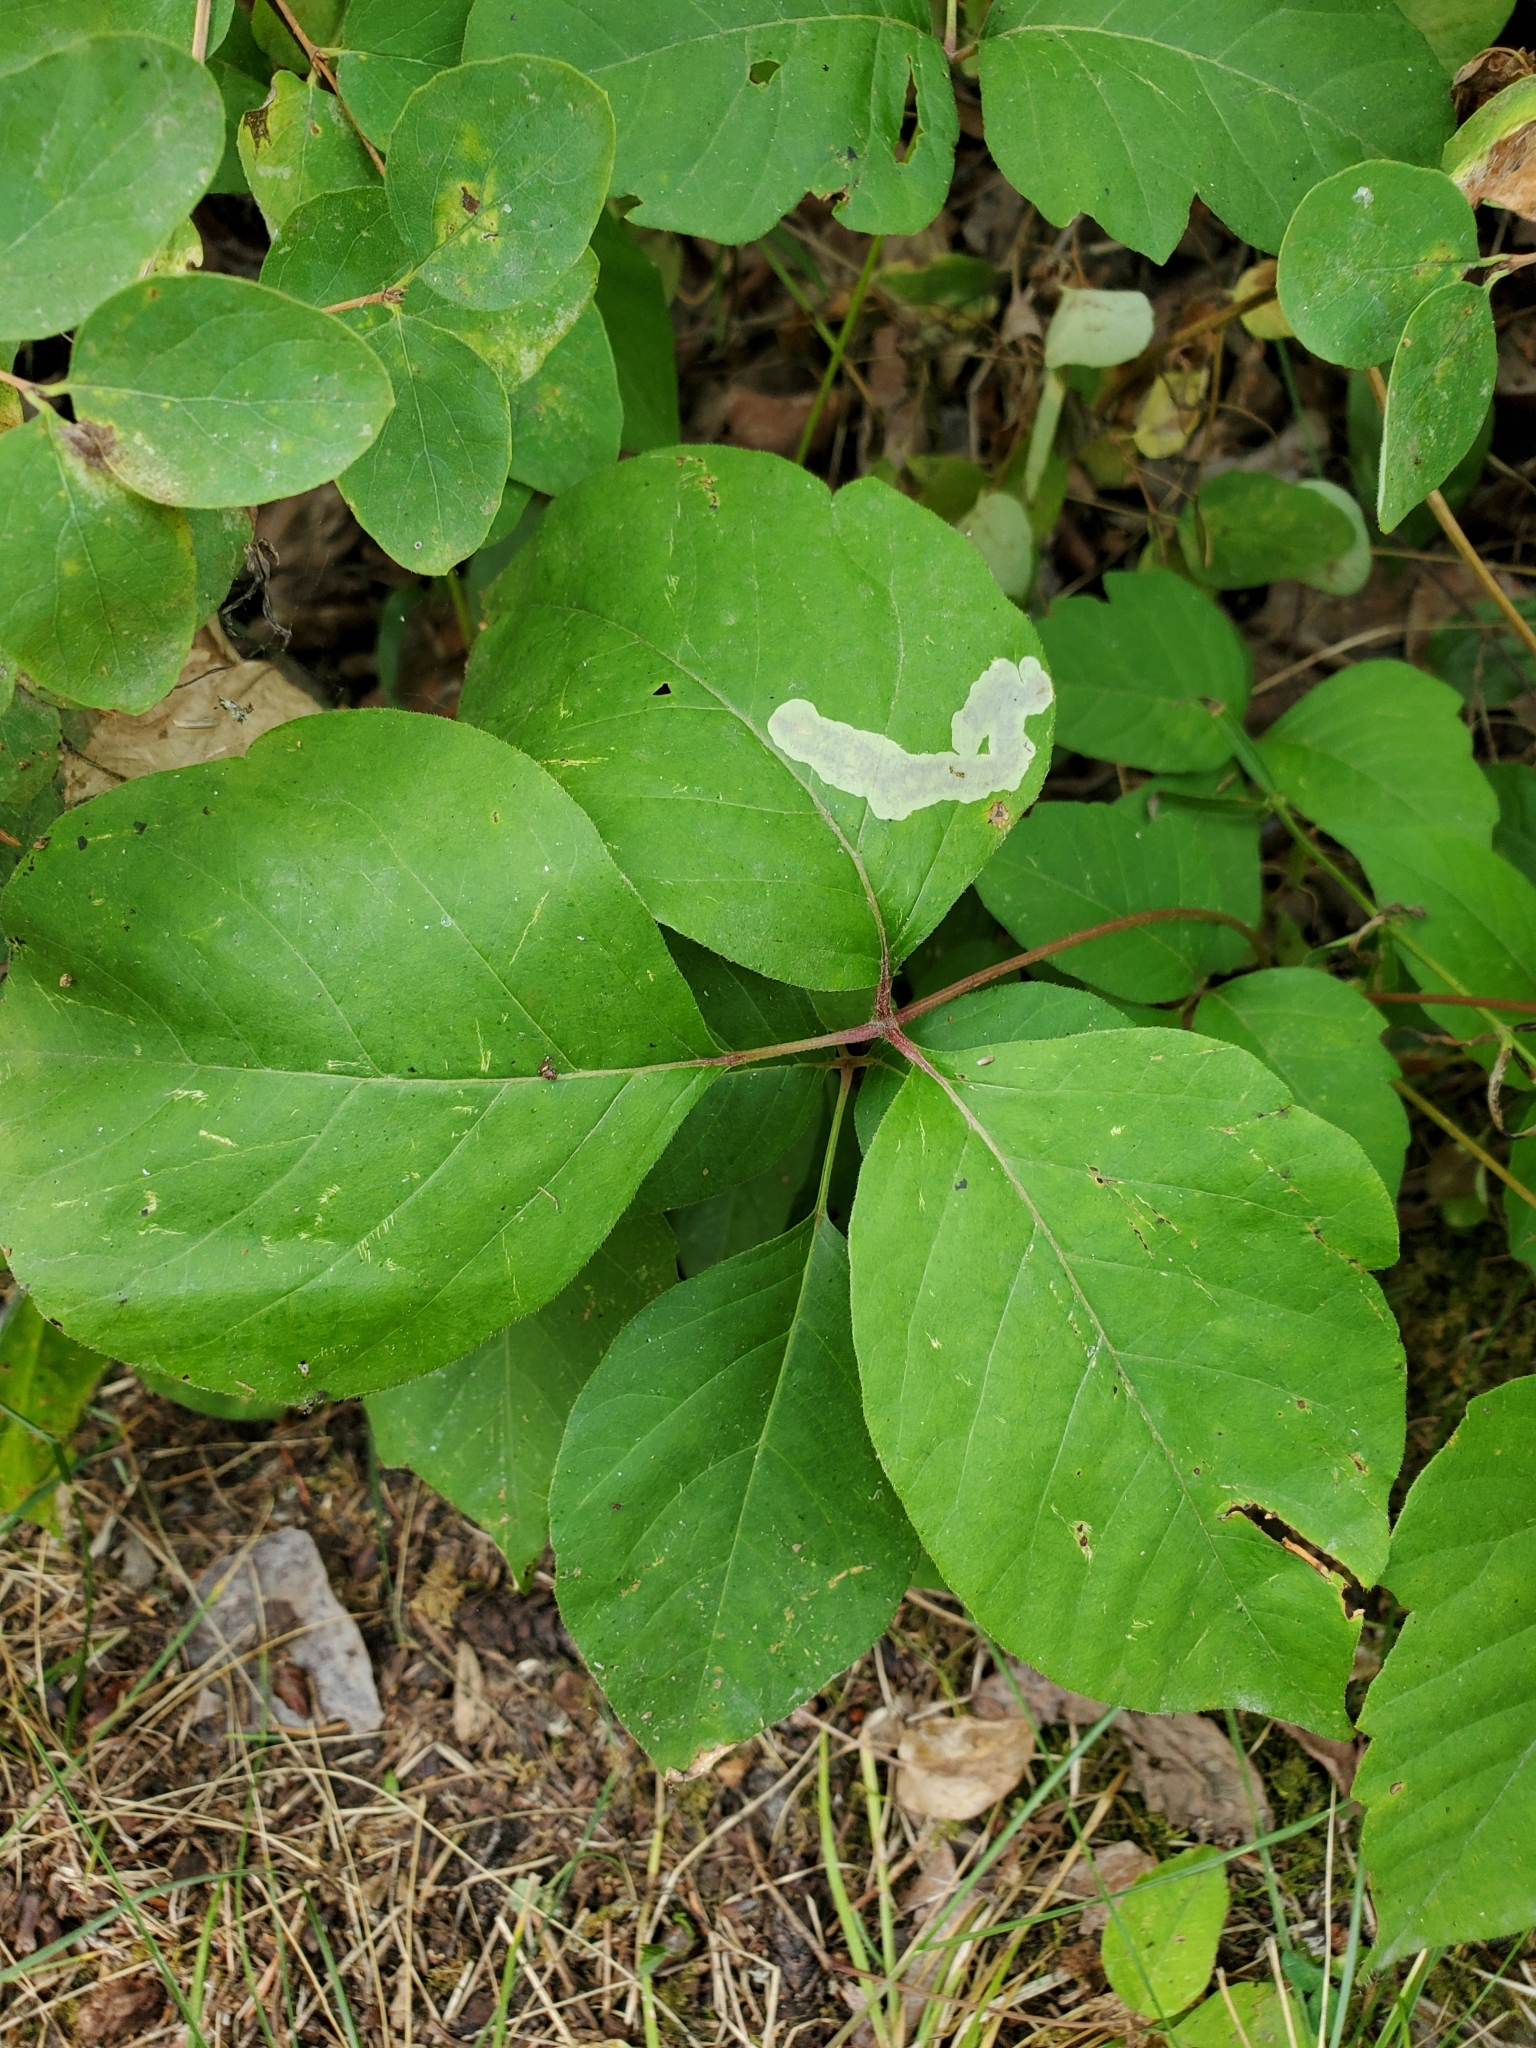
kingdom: Animalia
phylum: Arthropoda
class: Insecta
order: Lepidoptera
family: Gracillariidae
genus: Cameraria
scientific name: Cameraria guttifinitella
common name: Poison ivy leaf-miner moth
